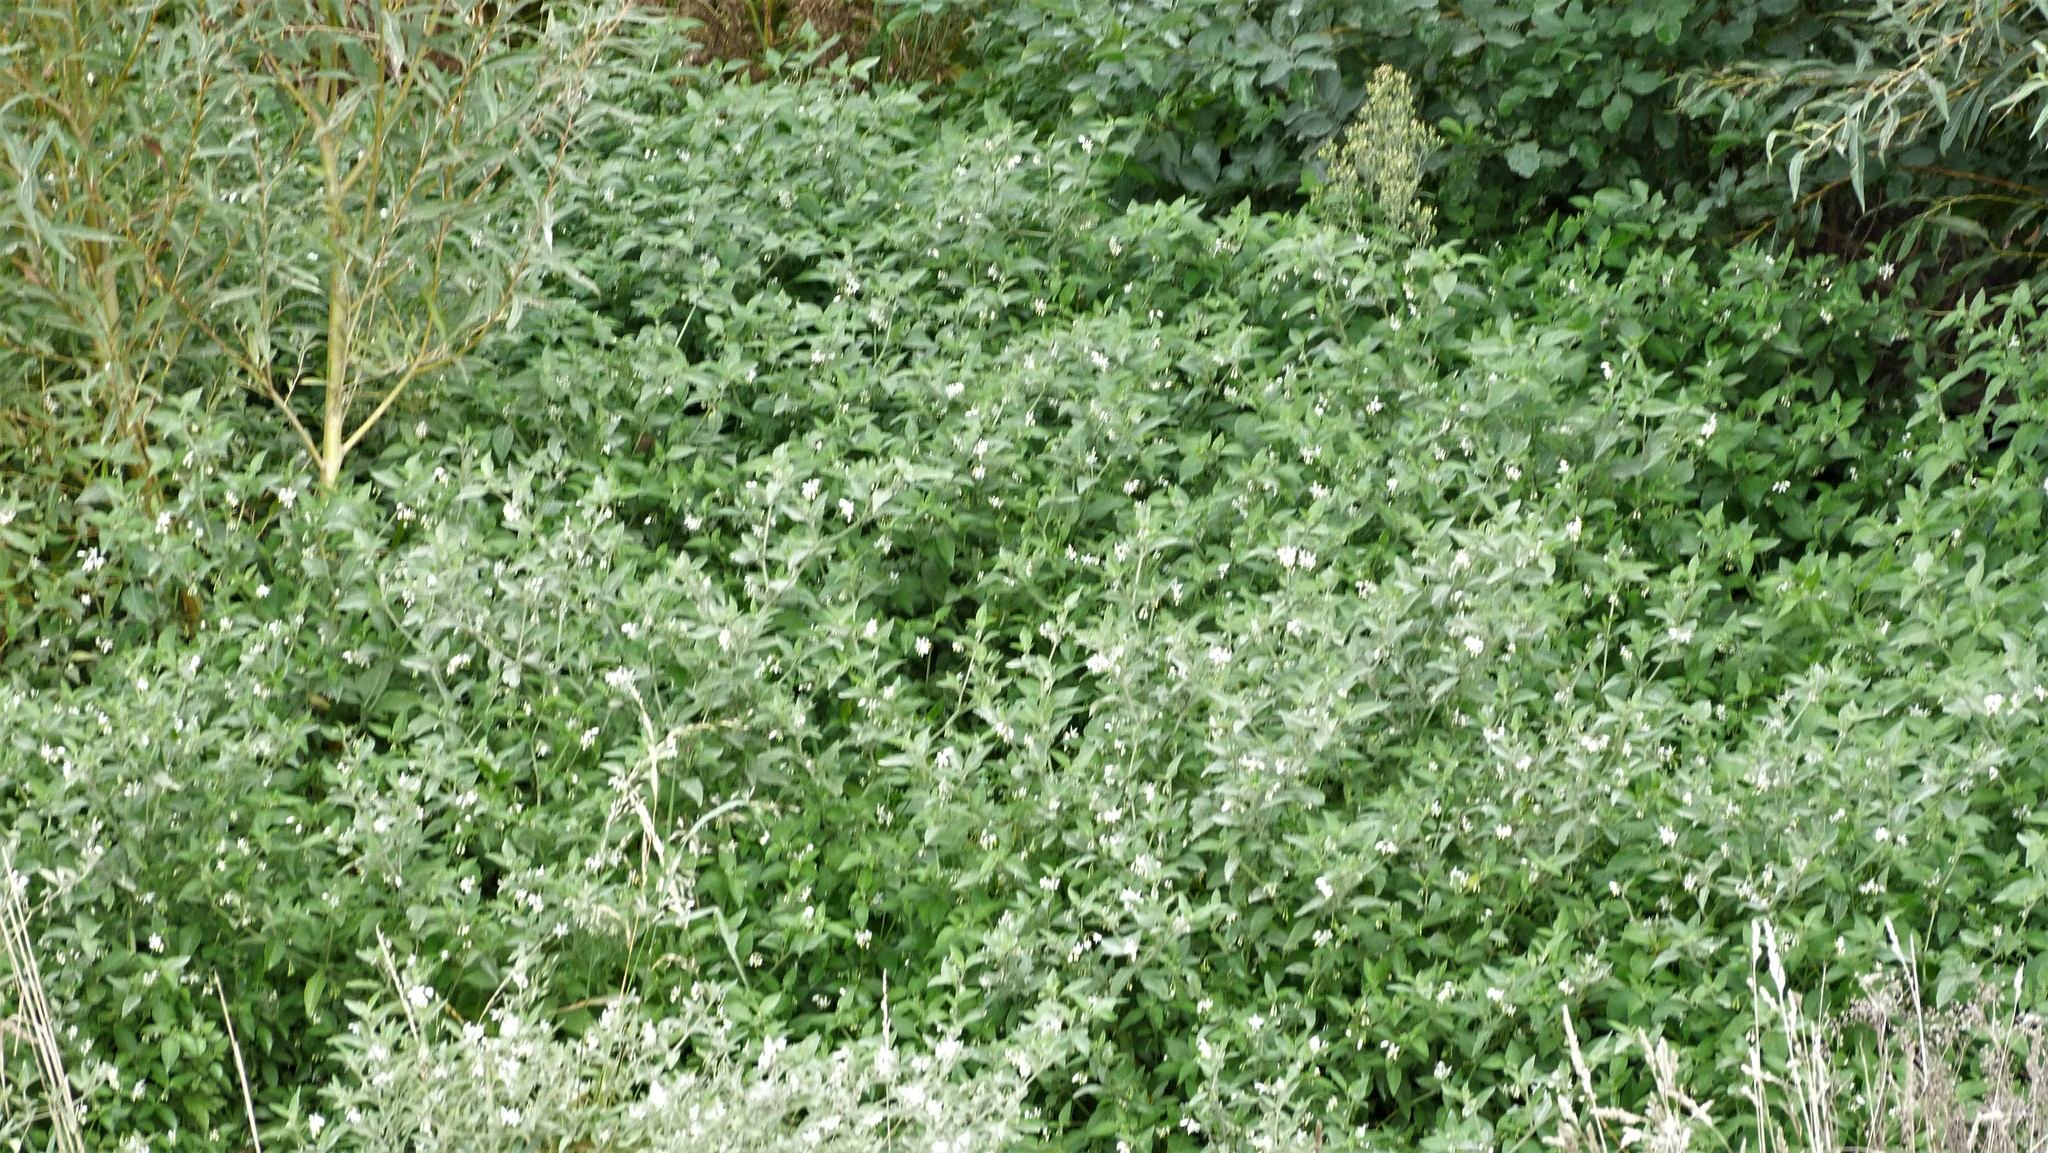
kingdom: Plantae
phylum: Tracheophyta
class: Magnoliopsida
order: Solanales
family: Solanaceae
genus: Solanum
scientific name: Solanum chenopodioides
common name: Tall nightshade
